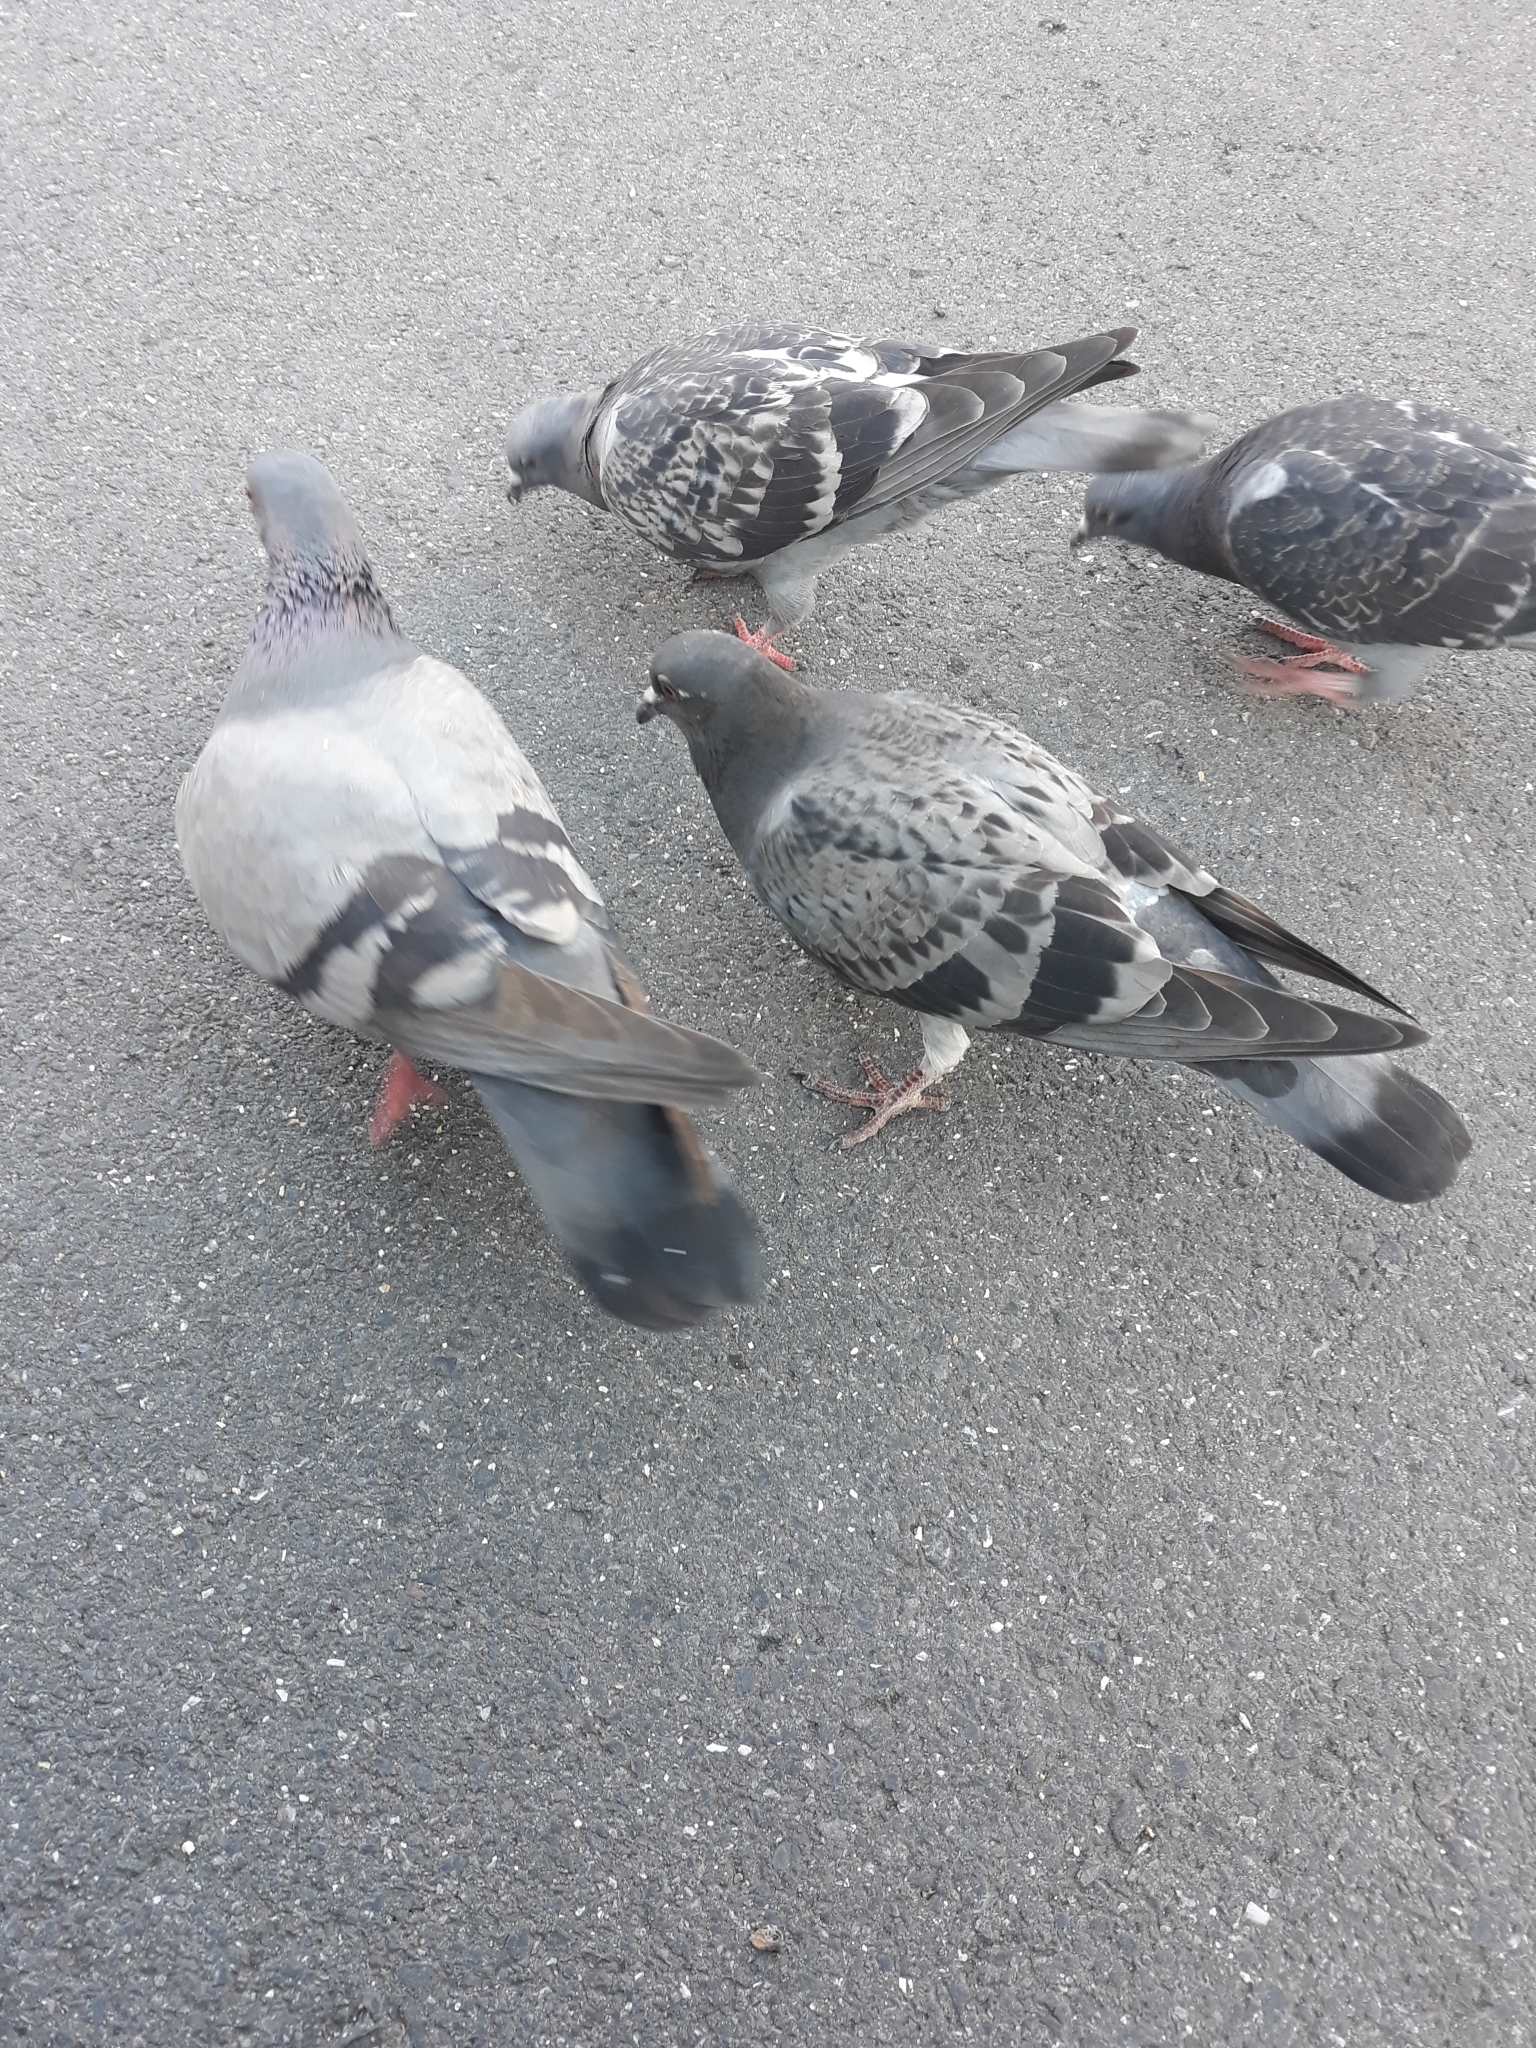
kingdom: Animalia
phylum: Chordata
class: Aves
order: Columbiformes
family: Columbidae
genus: Columba
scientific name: Columba livia
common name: Rock pigeon
